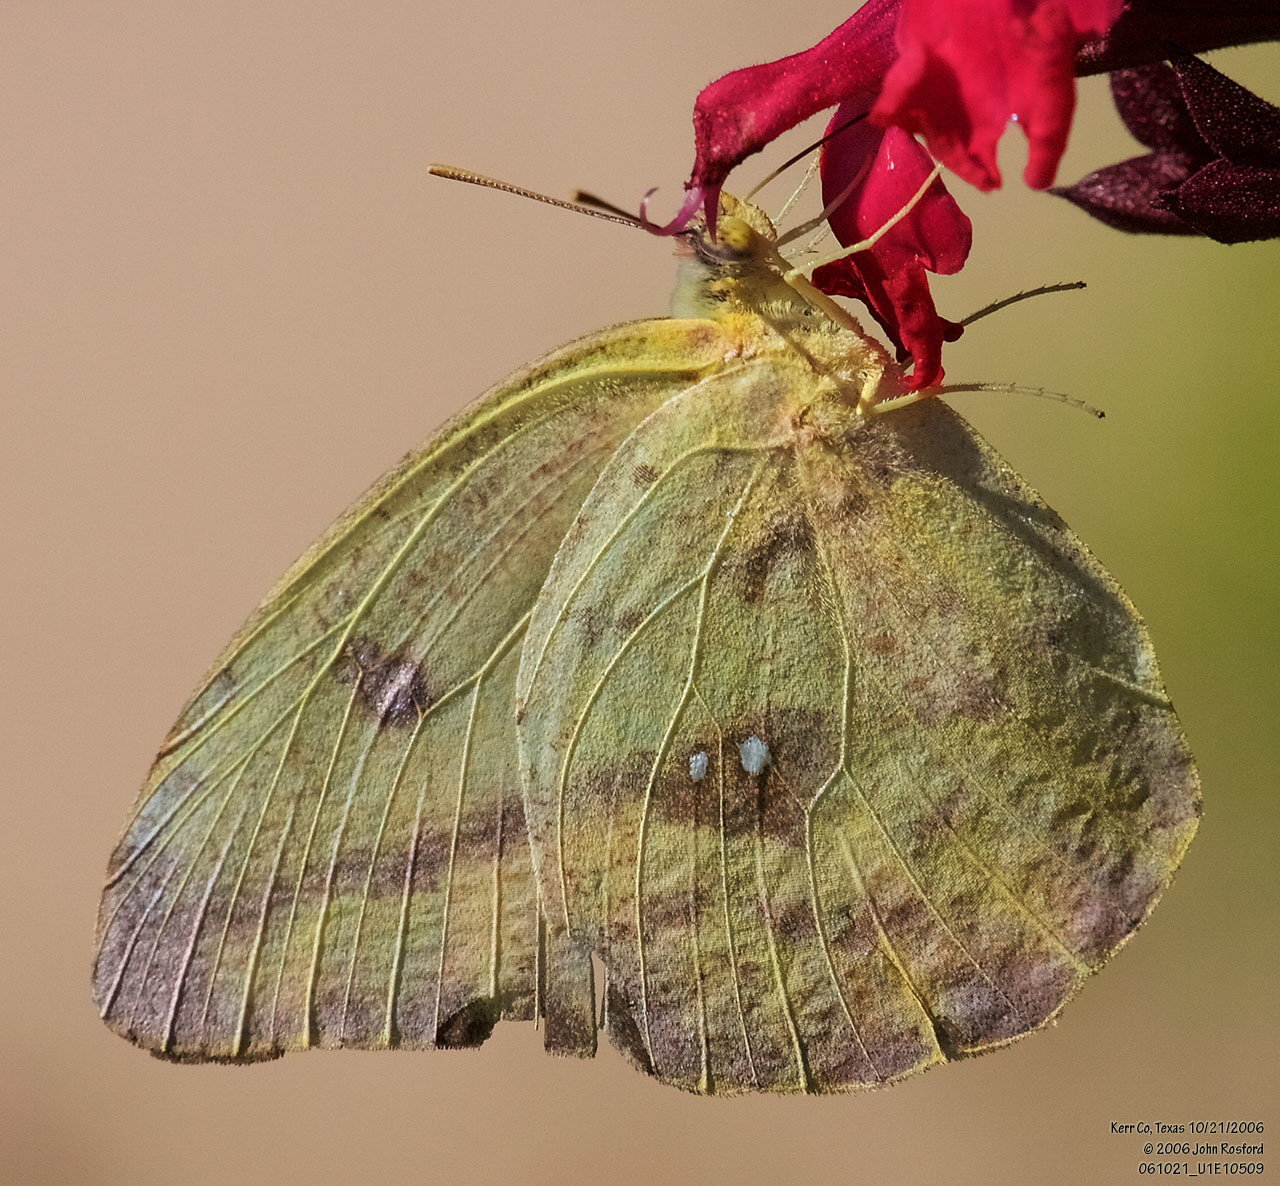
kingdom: Animalia
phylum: Arthropoda
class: Insecta
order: Lepidoptera
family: Pieridae
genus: Phoebis
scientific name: Phoebis agarithe
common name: Large orange sulphur
